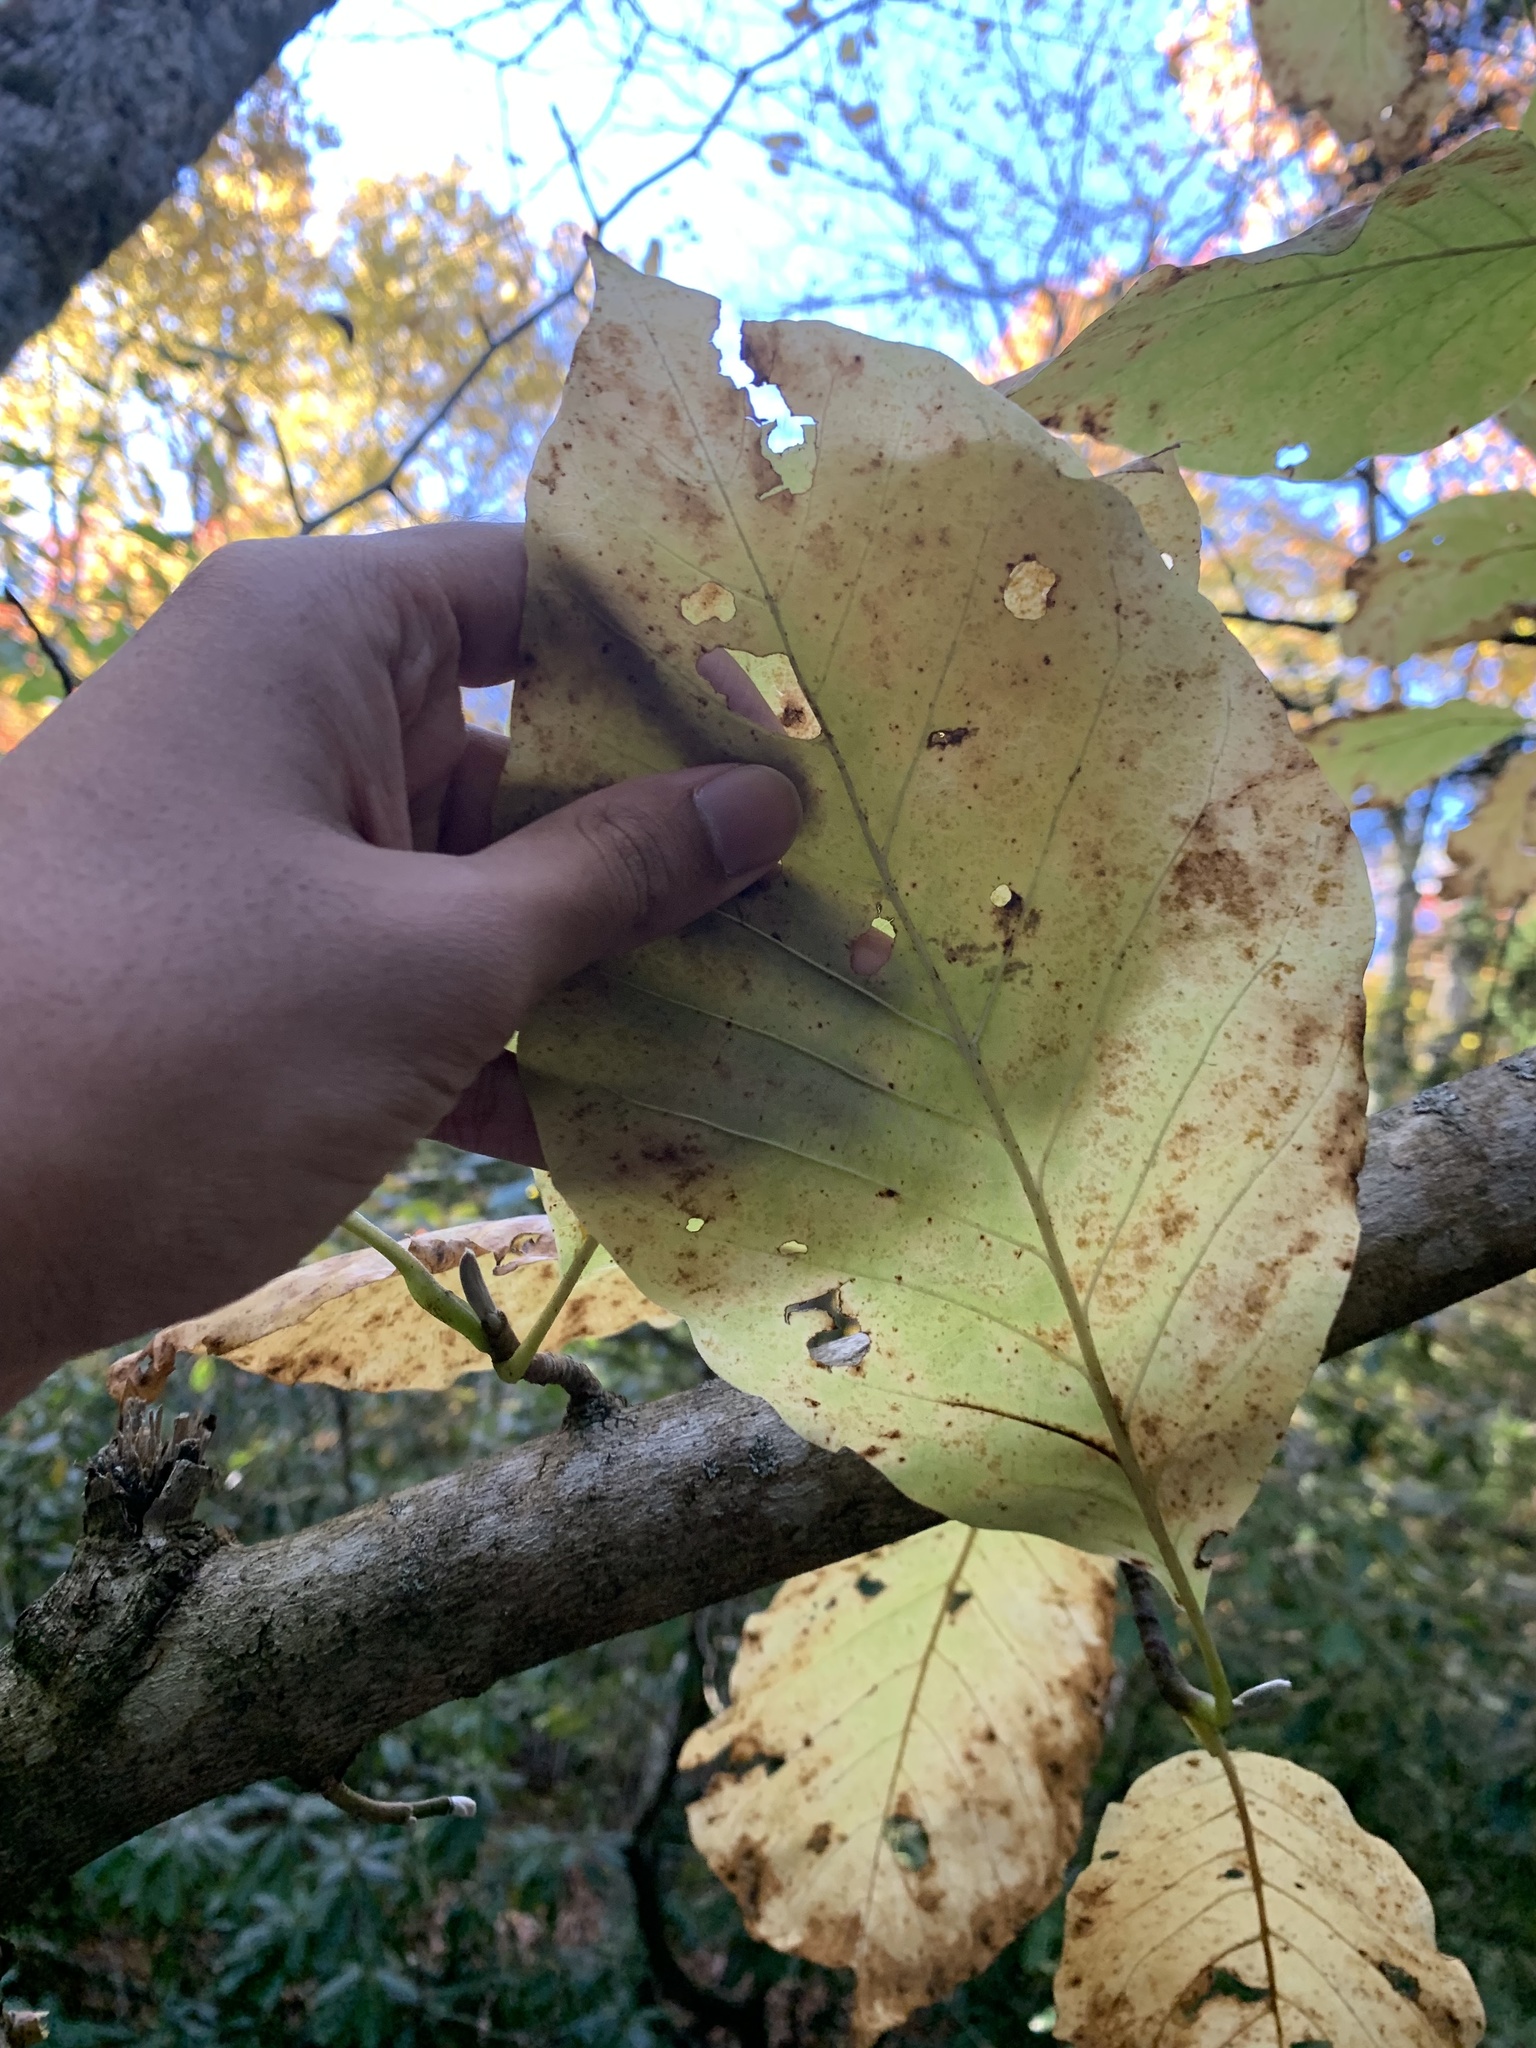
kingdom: Plantae
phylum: Tracheophyta
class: Magnoliopsida
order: Magnoliales
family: Magnoliaceae
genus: Magnolia
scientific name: Magnolia acuminata
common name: Cucumber magnolia
